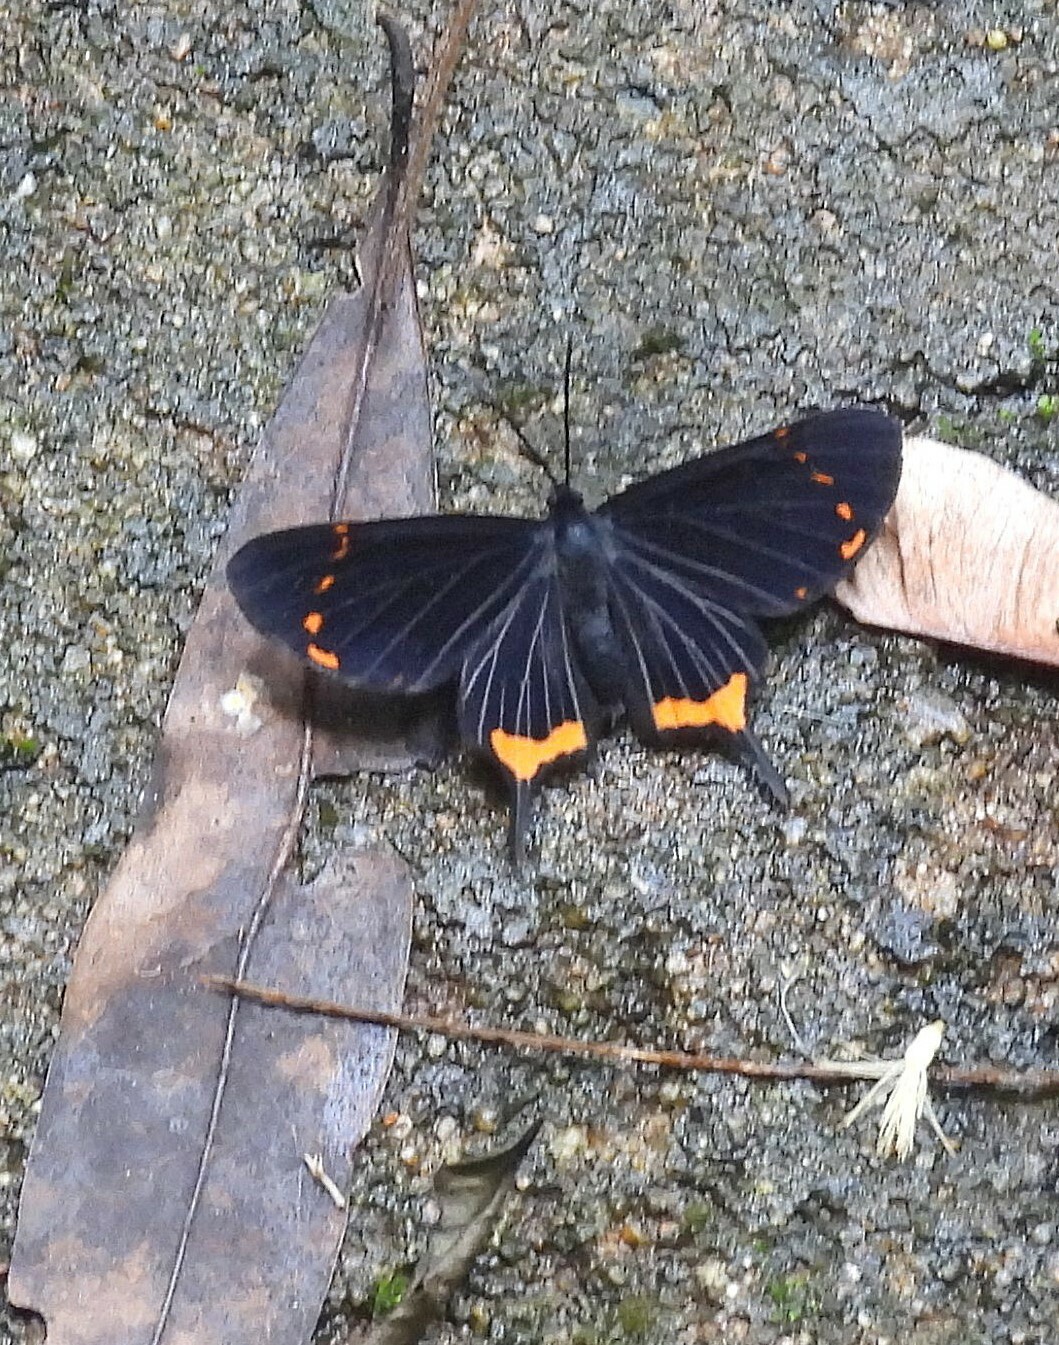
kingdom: Animalia
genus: Barbicornis
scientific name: Barbicornis basilisi
